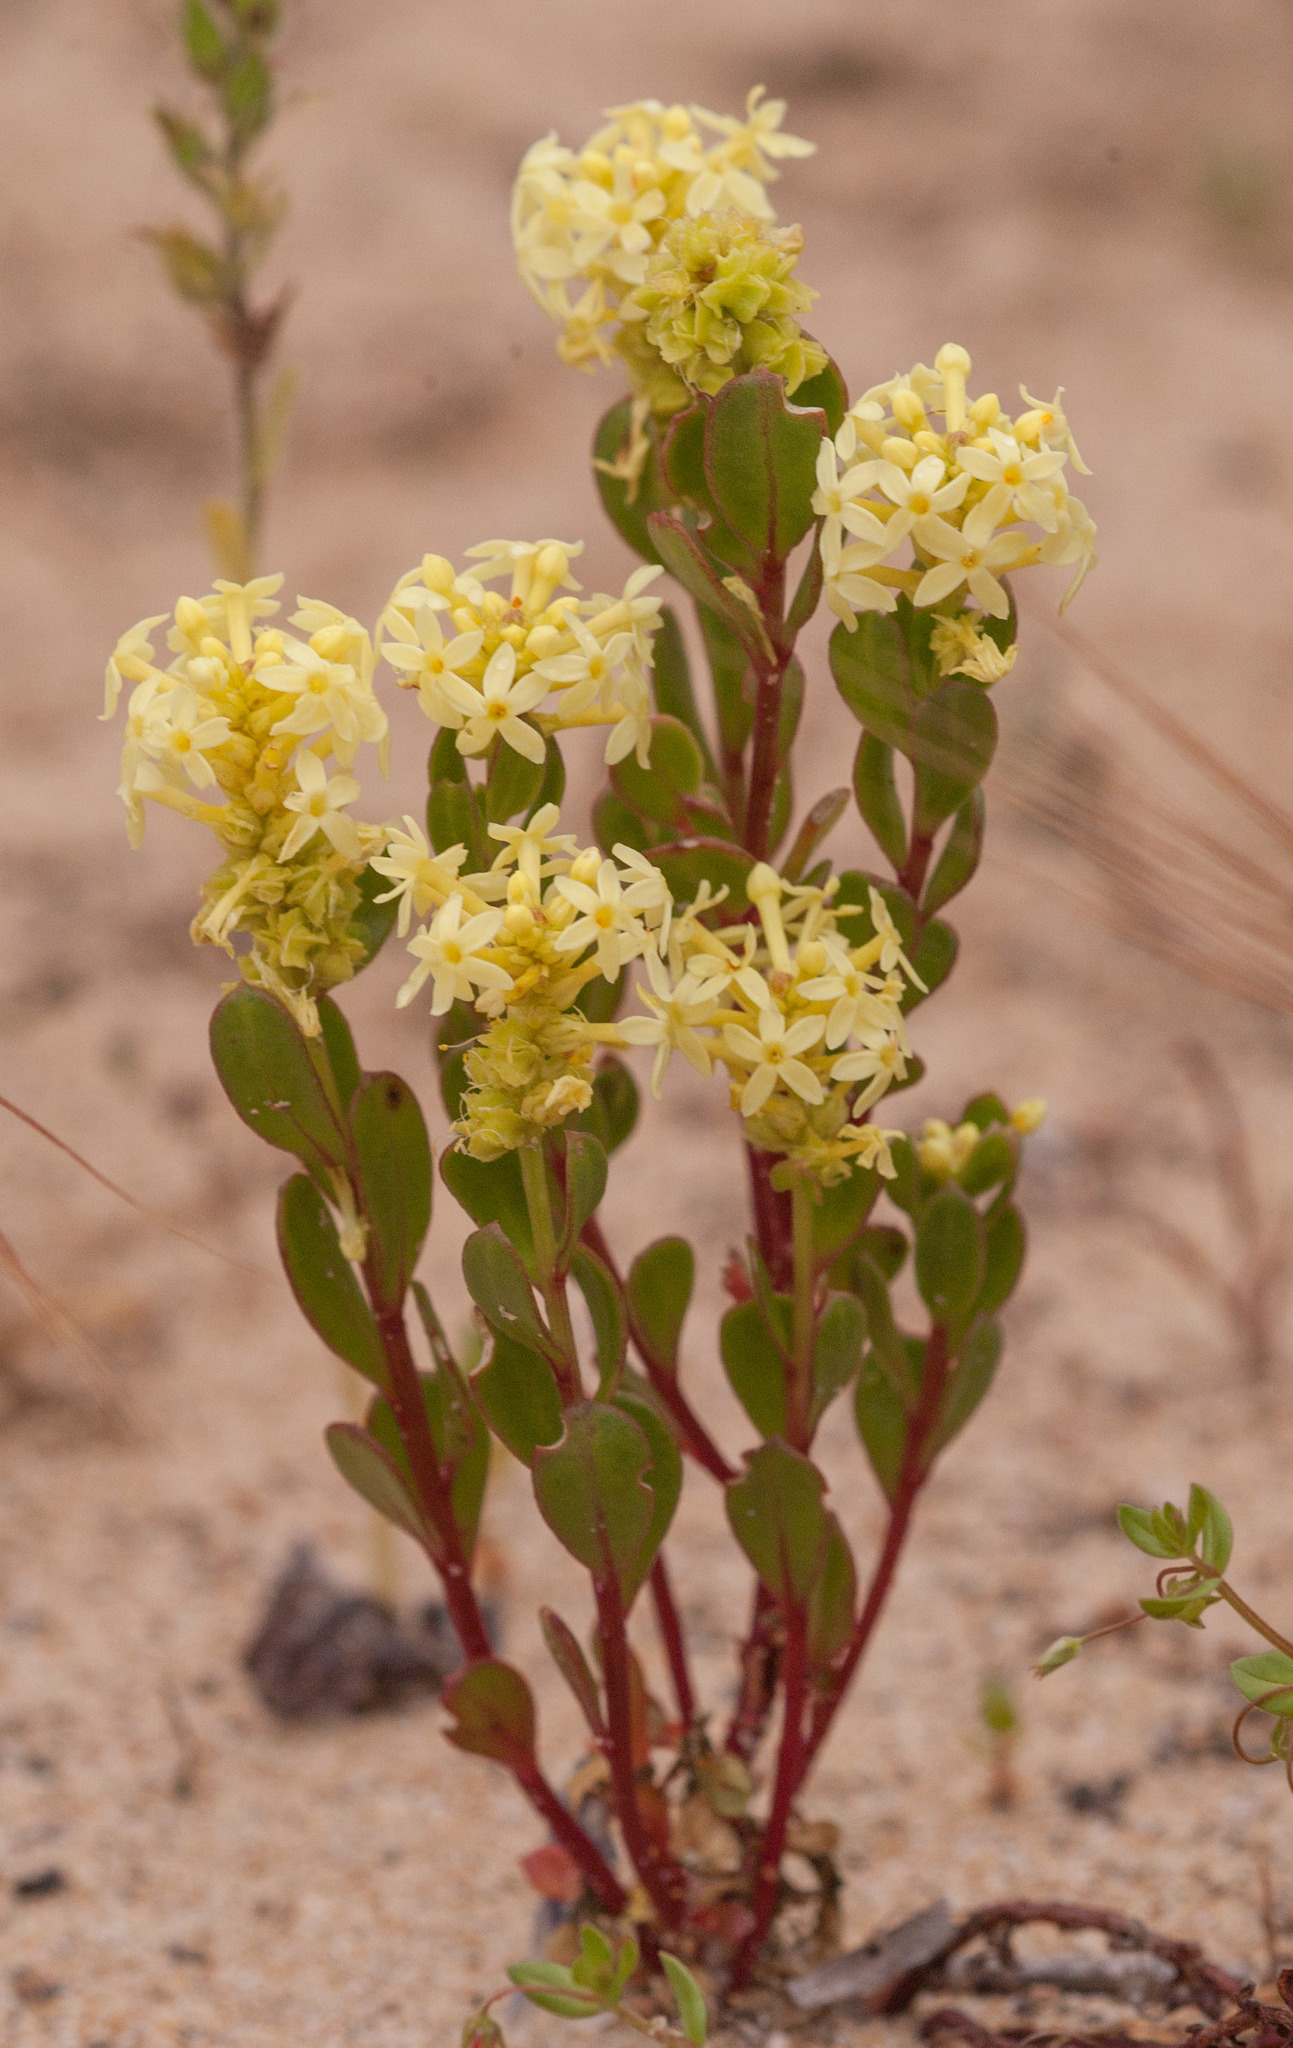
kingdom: Plantae
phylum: Tracheophyta
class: Magnoliopsida
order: Celastrales
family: Celastraceae
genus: Stackhousia
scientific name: Stackhousia spathulata
